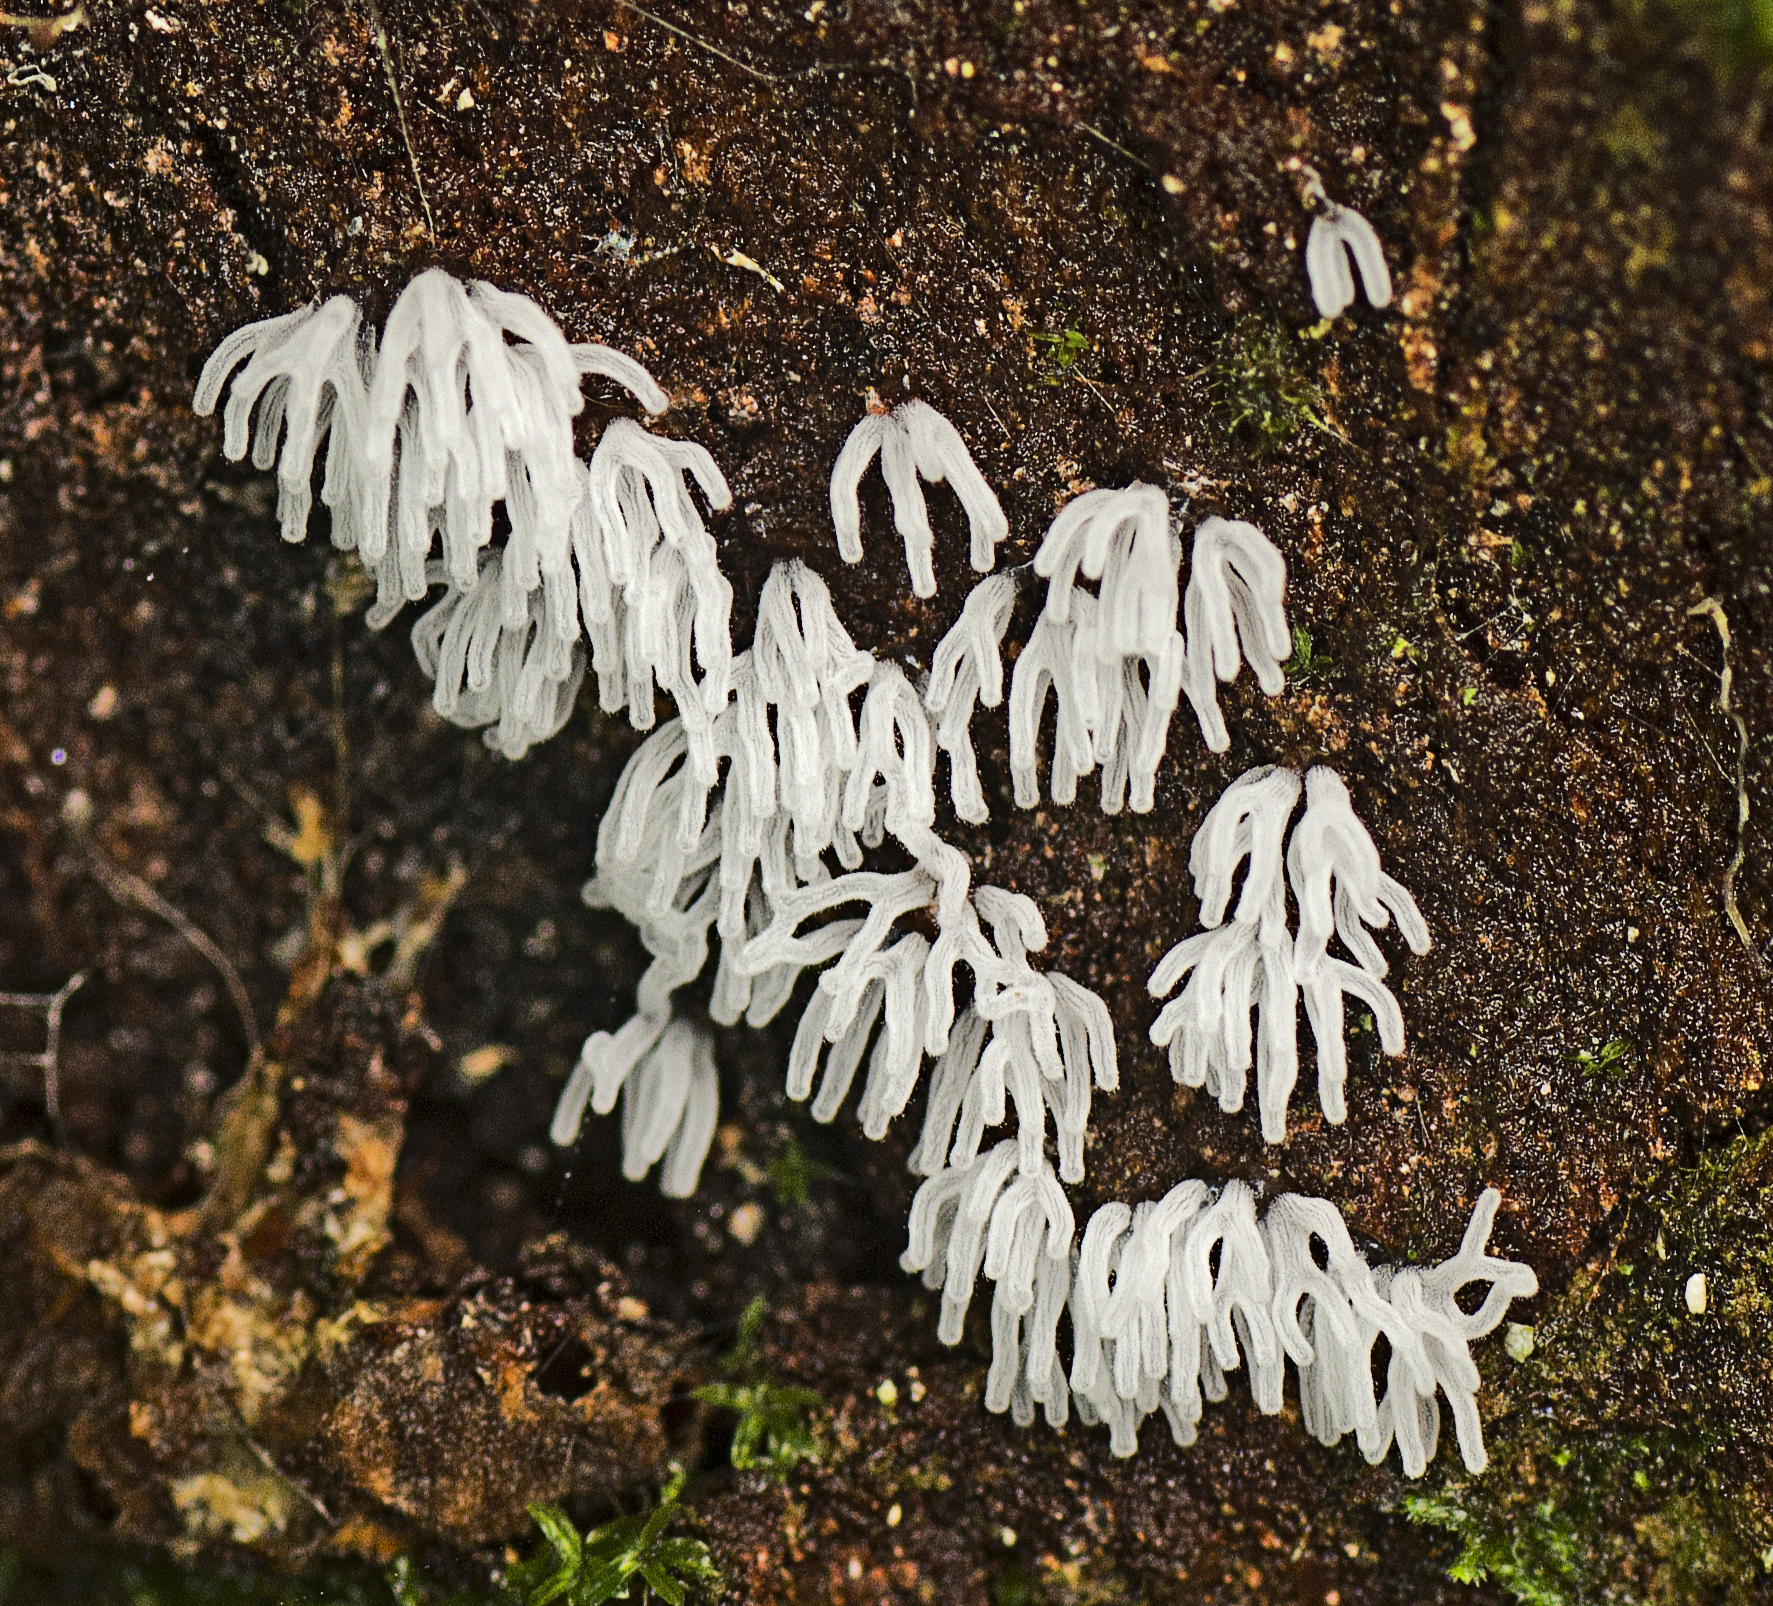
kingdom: Protozoa
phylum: Mycetozoa
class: Protosteliomycetes
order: Ceratiomyxales
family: Ceratiomyxaceae
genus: Ceratiomyxa
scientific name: Ceratiomyxa fruticulosa
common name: Honeycomb coral slime mold
